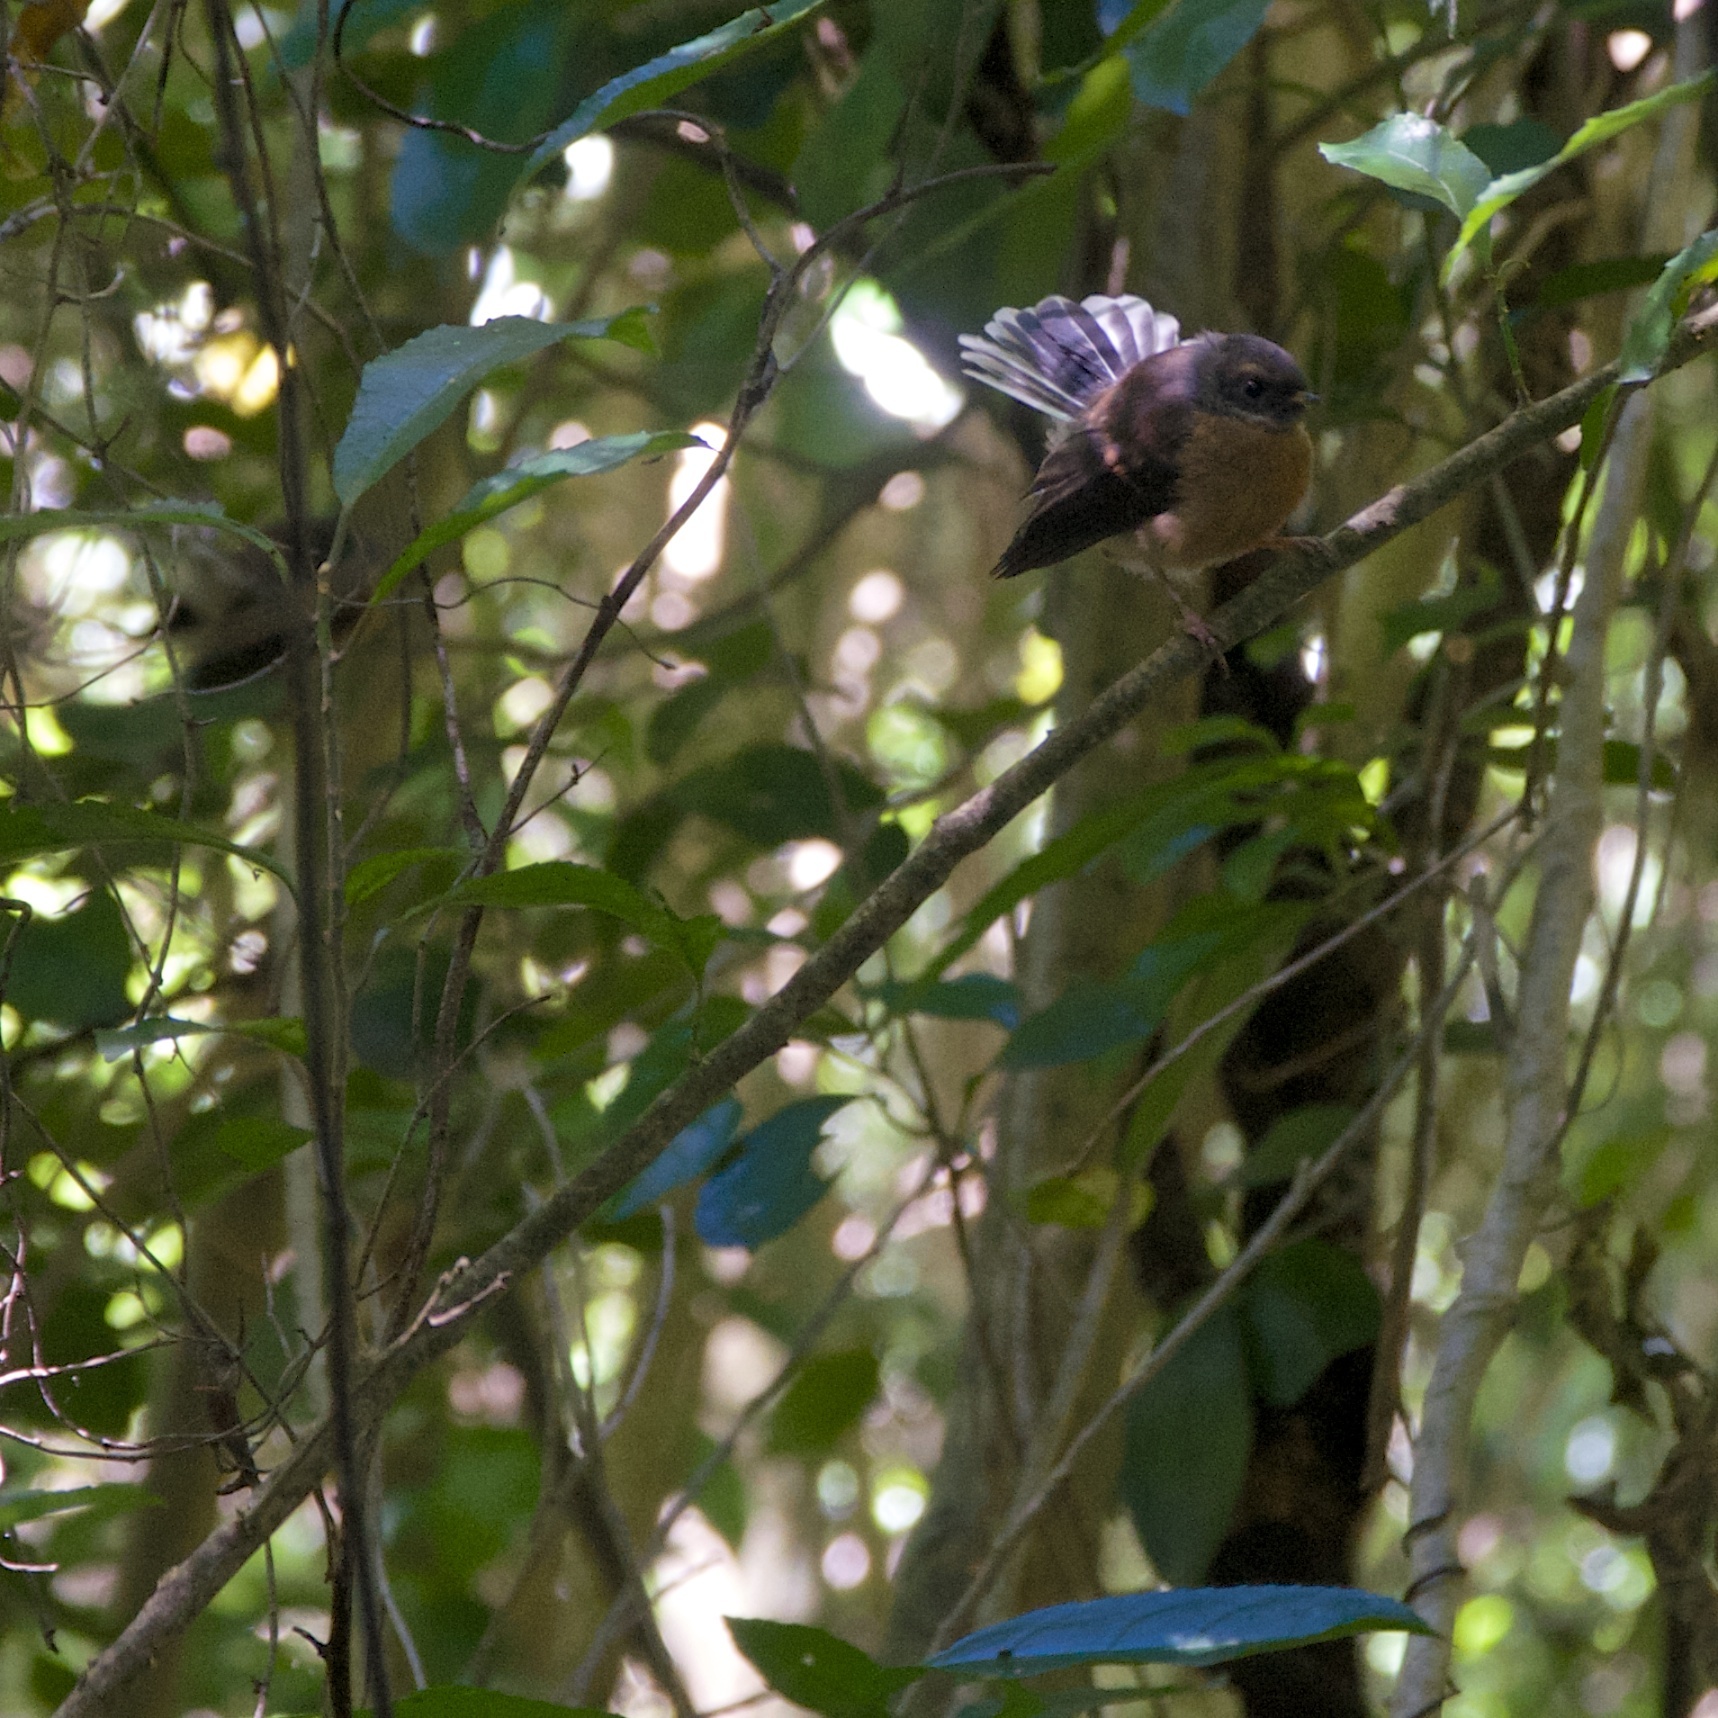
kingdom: Animalia
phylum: Chordata
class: Aves
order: Passeriformes
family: Rhipiduridae
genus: Rhipidura
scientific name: Rhipidura fuliginosa
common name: New zealand fantail
